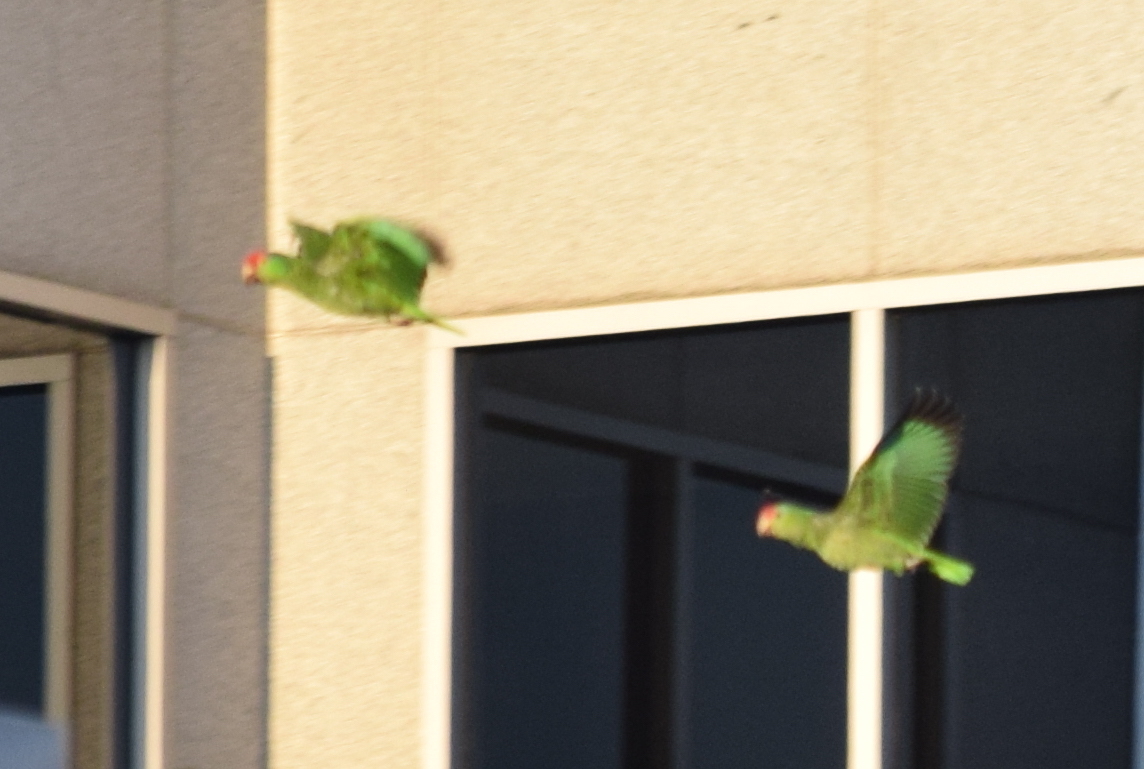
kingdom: Animalia
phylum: Chordata
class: Aves
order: Psittaciformes
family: Psittacidae
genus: Amazona
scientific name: Amazona viridigenalis
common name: Red-crowned amazon
